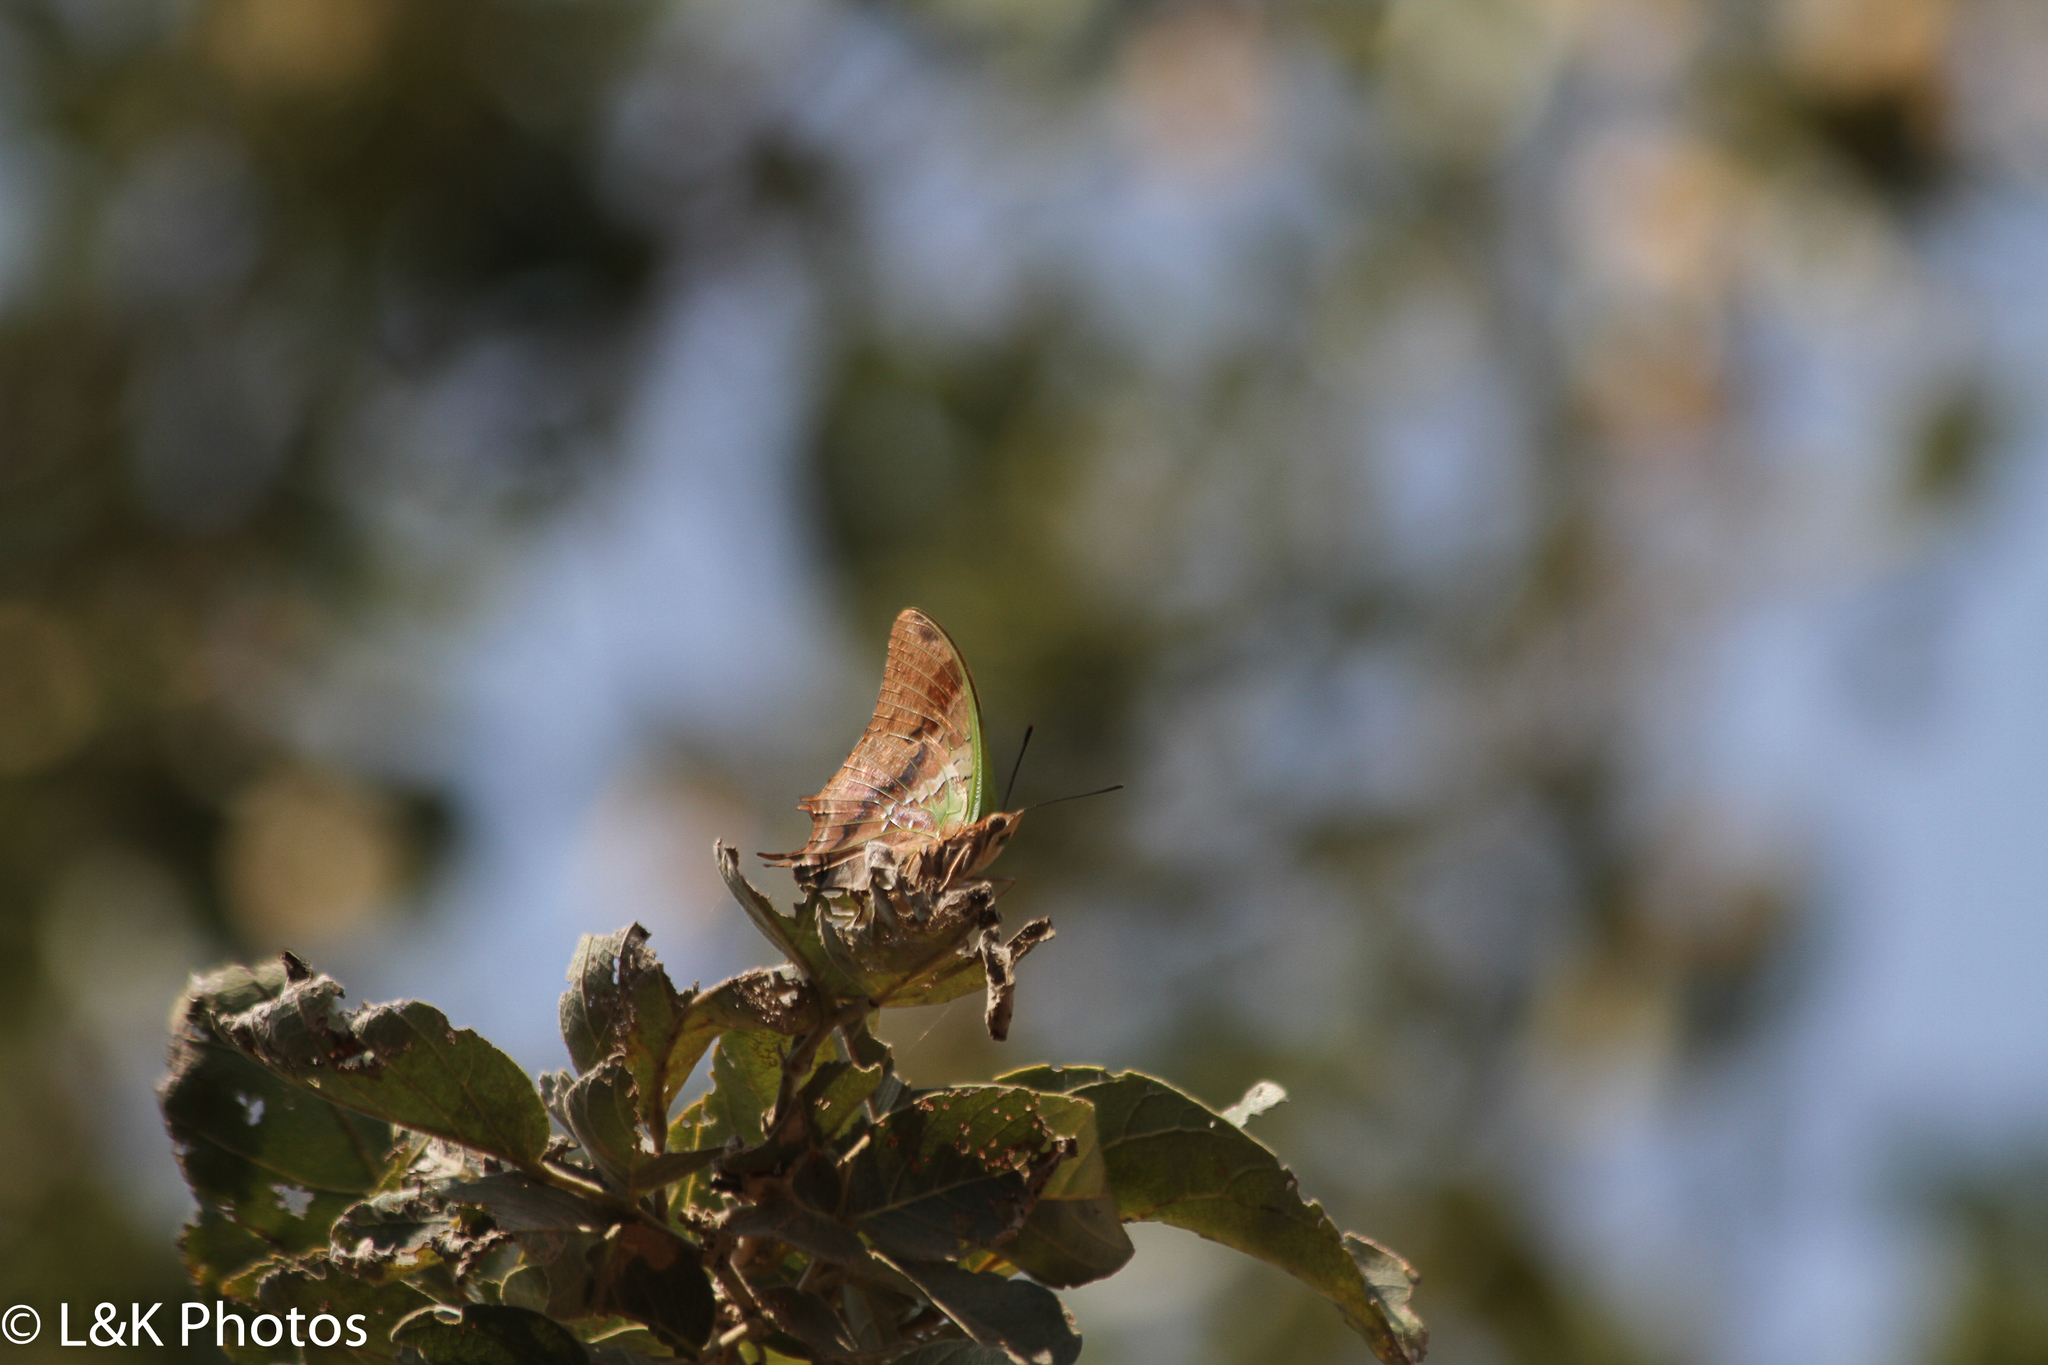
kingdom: Animalia
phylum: Arthropoda
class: Insecta
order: Lepidoptera
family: Nymphalidae
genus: Charaxes
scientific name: Charaxes candiope
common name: Green-veined charaxes
